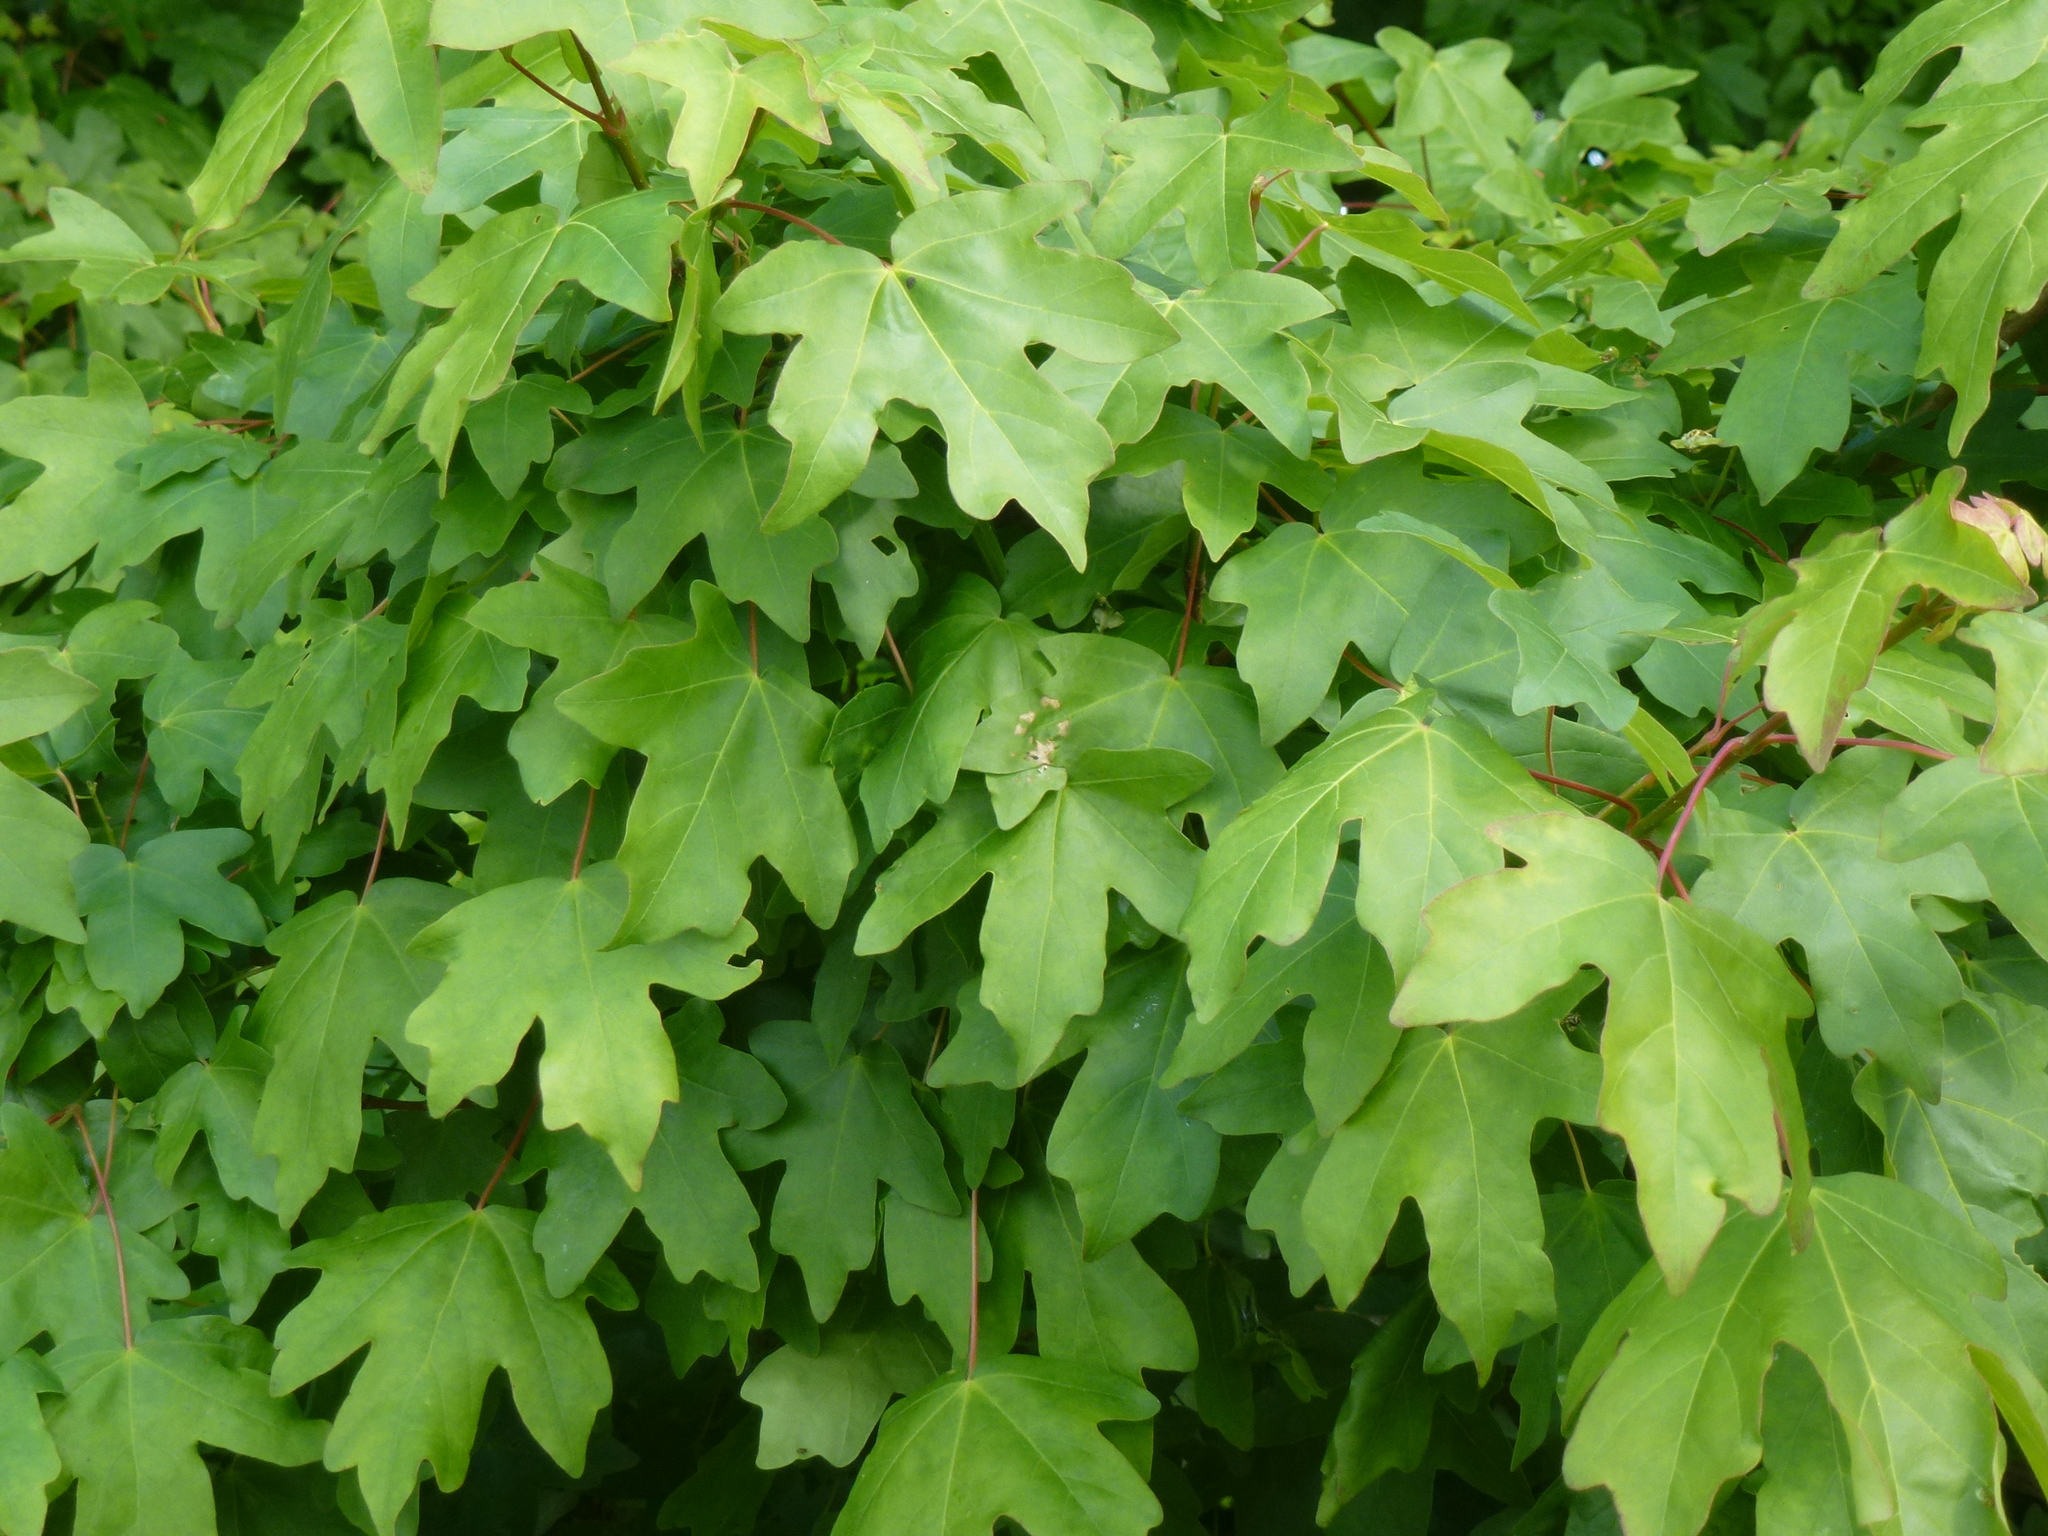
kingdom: Plantae
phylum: Tracheophyta
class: Magnoliopsida
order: Sapindales
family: Sapindaceae
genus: Acer
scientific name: Acer campestre
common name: Field maple
